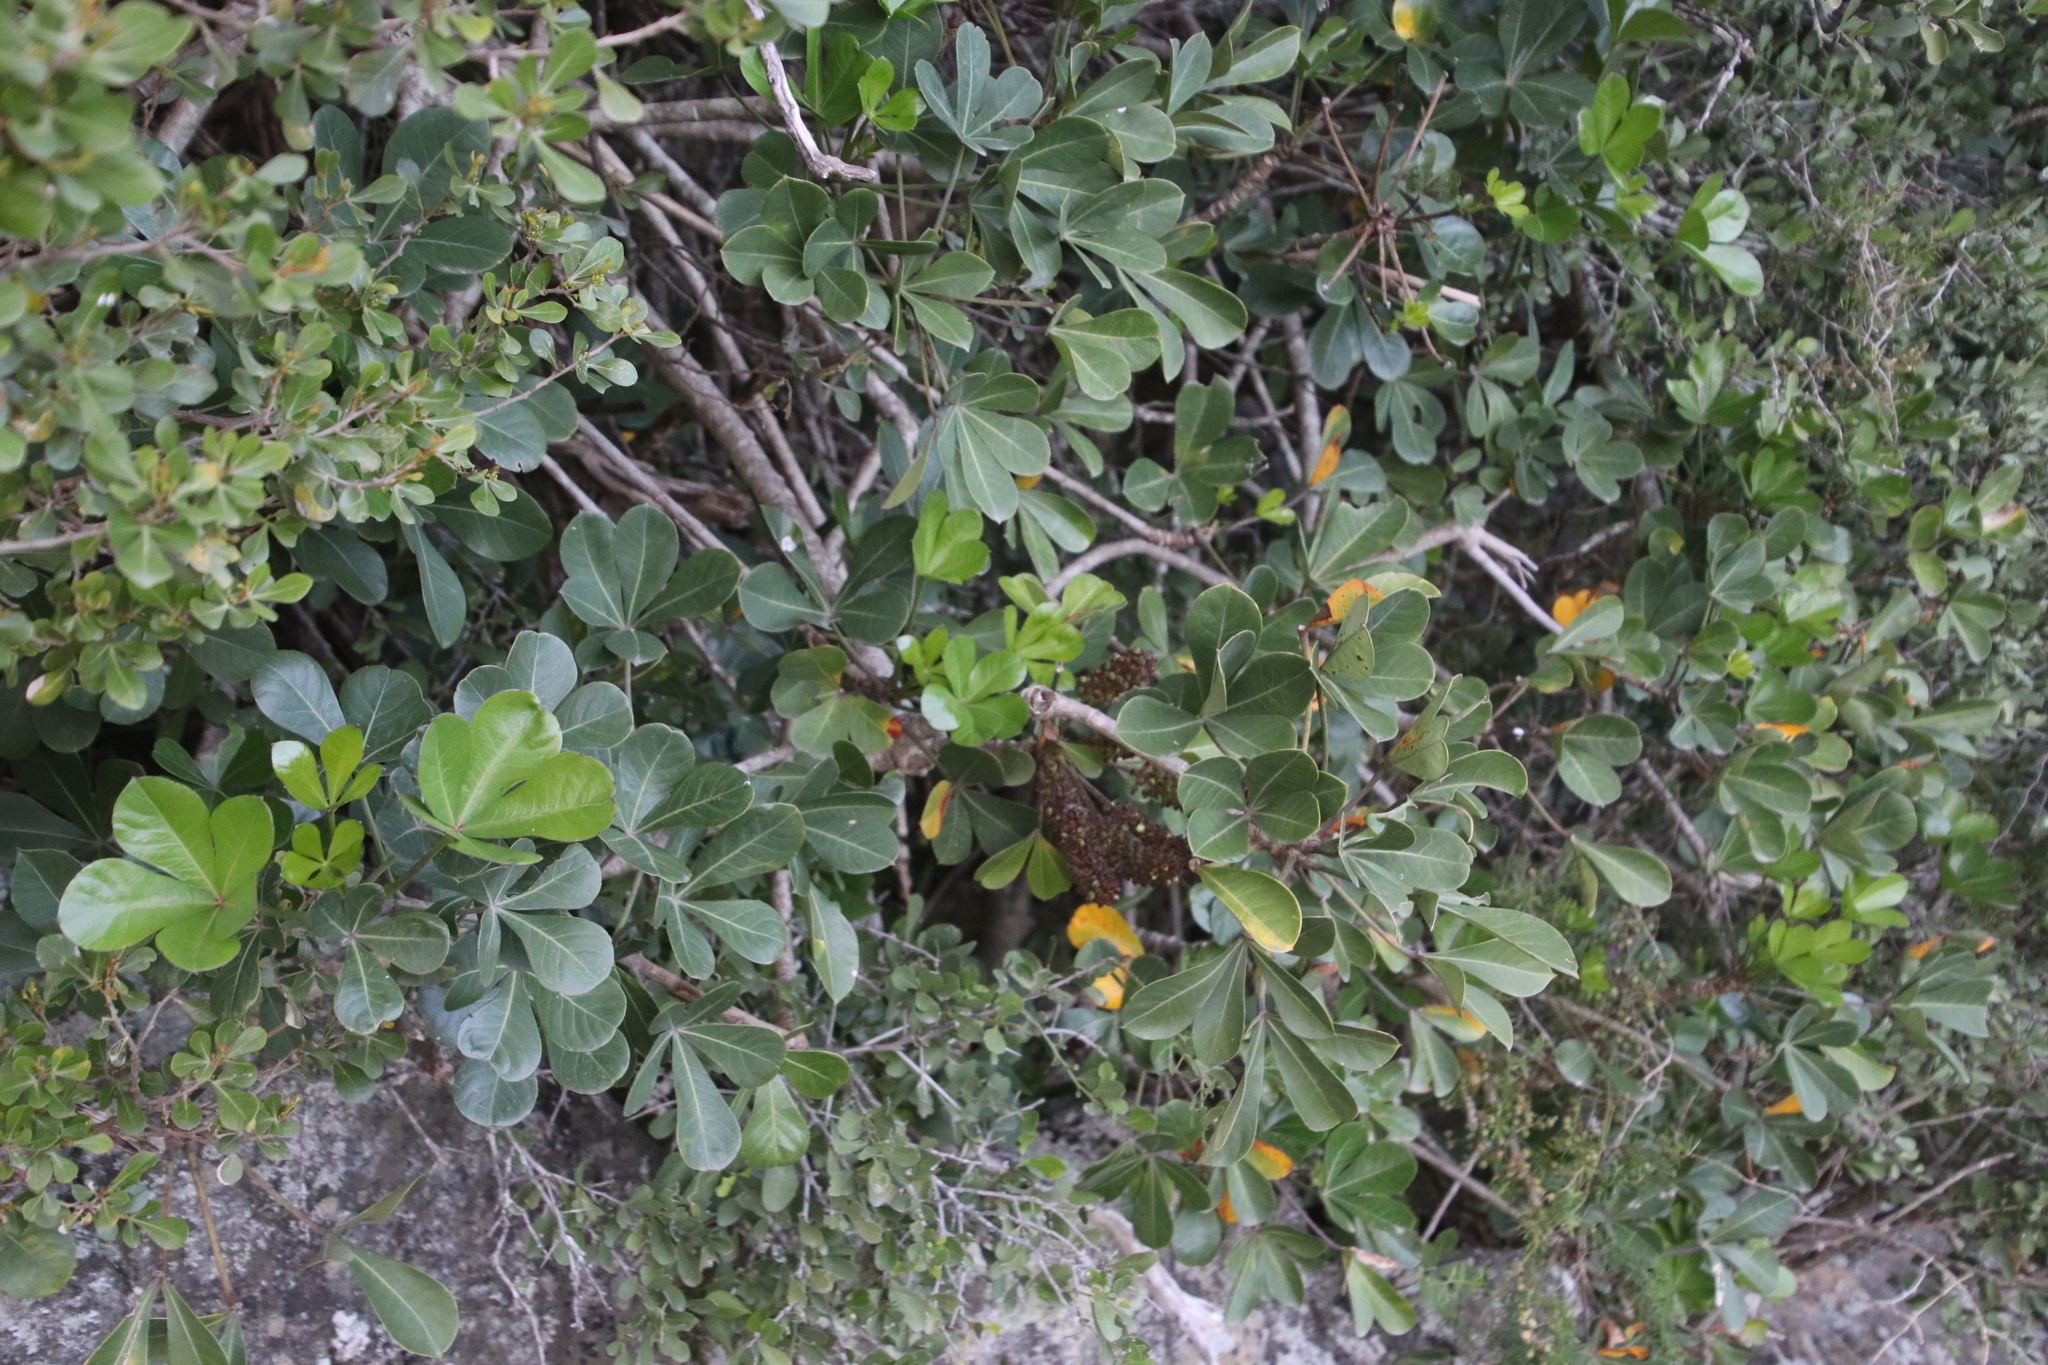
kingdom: Plantae
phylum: Tracheophyta
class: Magnoliopsida
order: Apiales
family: Araliaceae
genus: Cussonia
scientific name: Cussonia thyrsiflora
